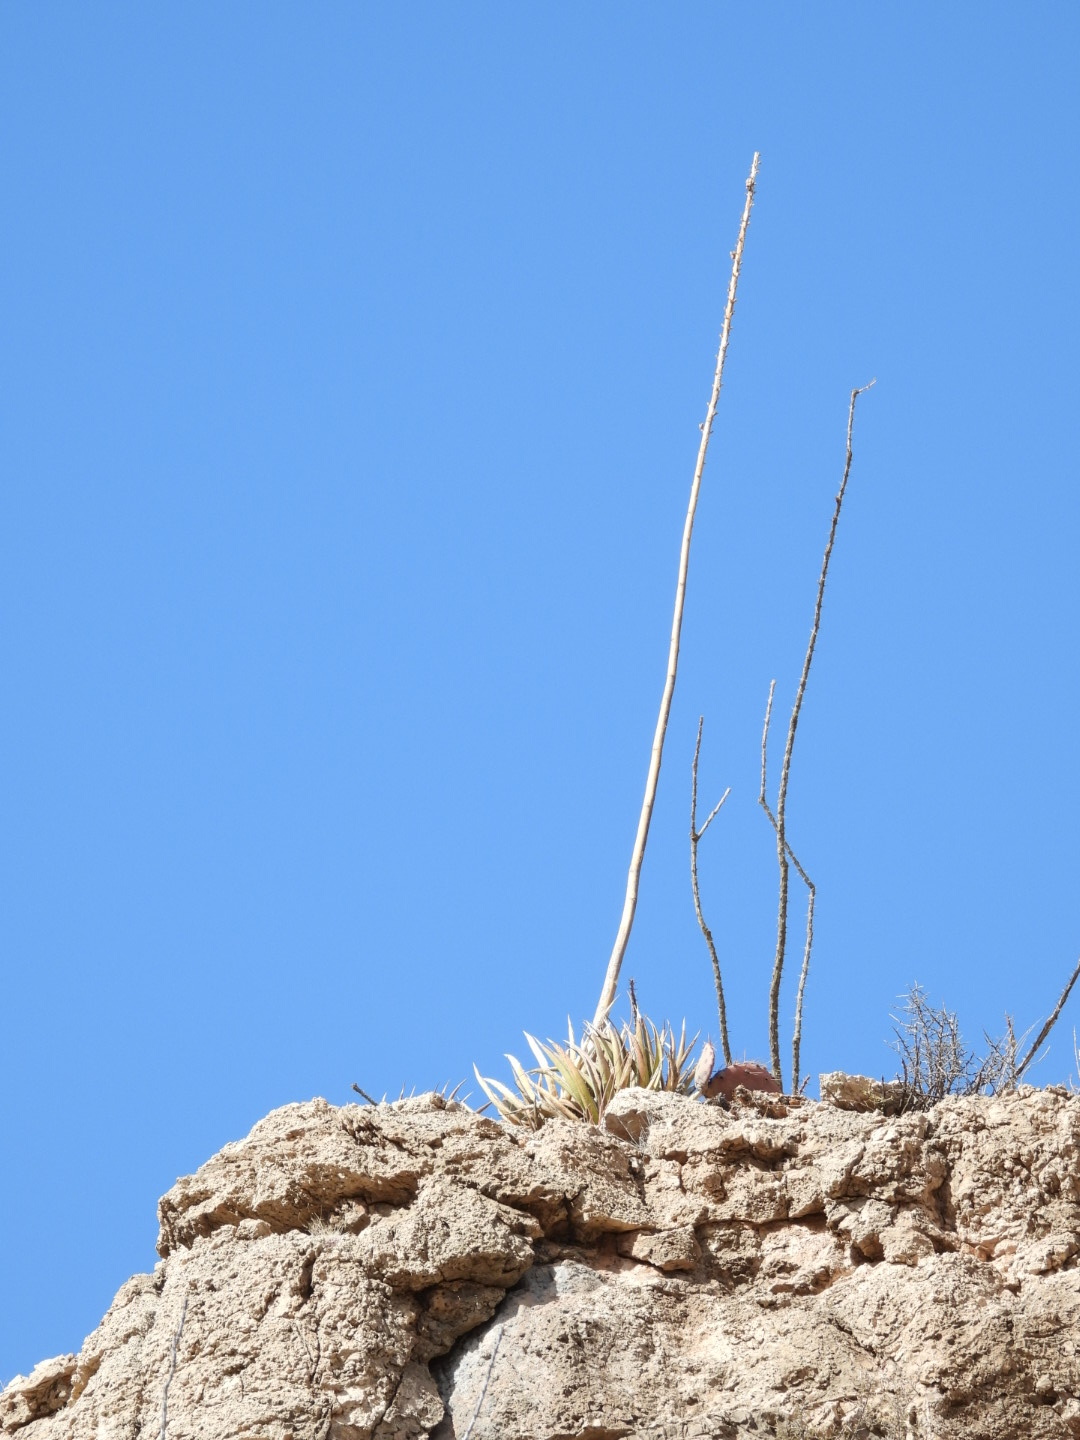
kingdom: Plantae
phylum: Tracheophyta
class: Liliopsida
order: Asparagales
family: Asparagaceae
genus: Agave
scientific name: Agave lechuguilla
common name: Lecheguilla agave
